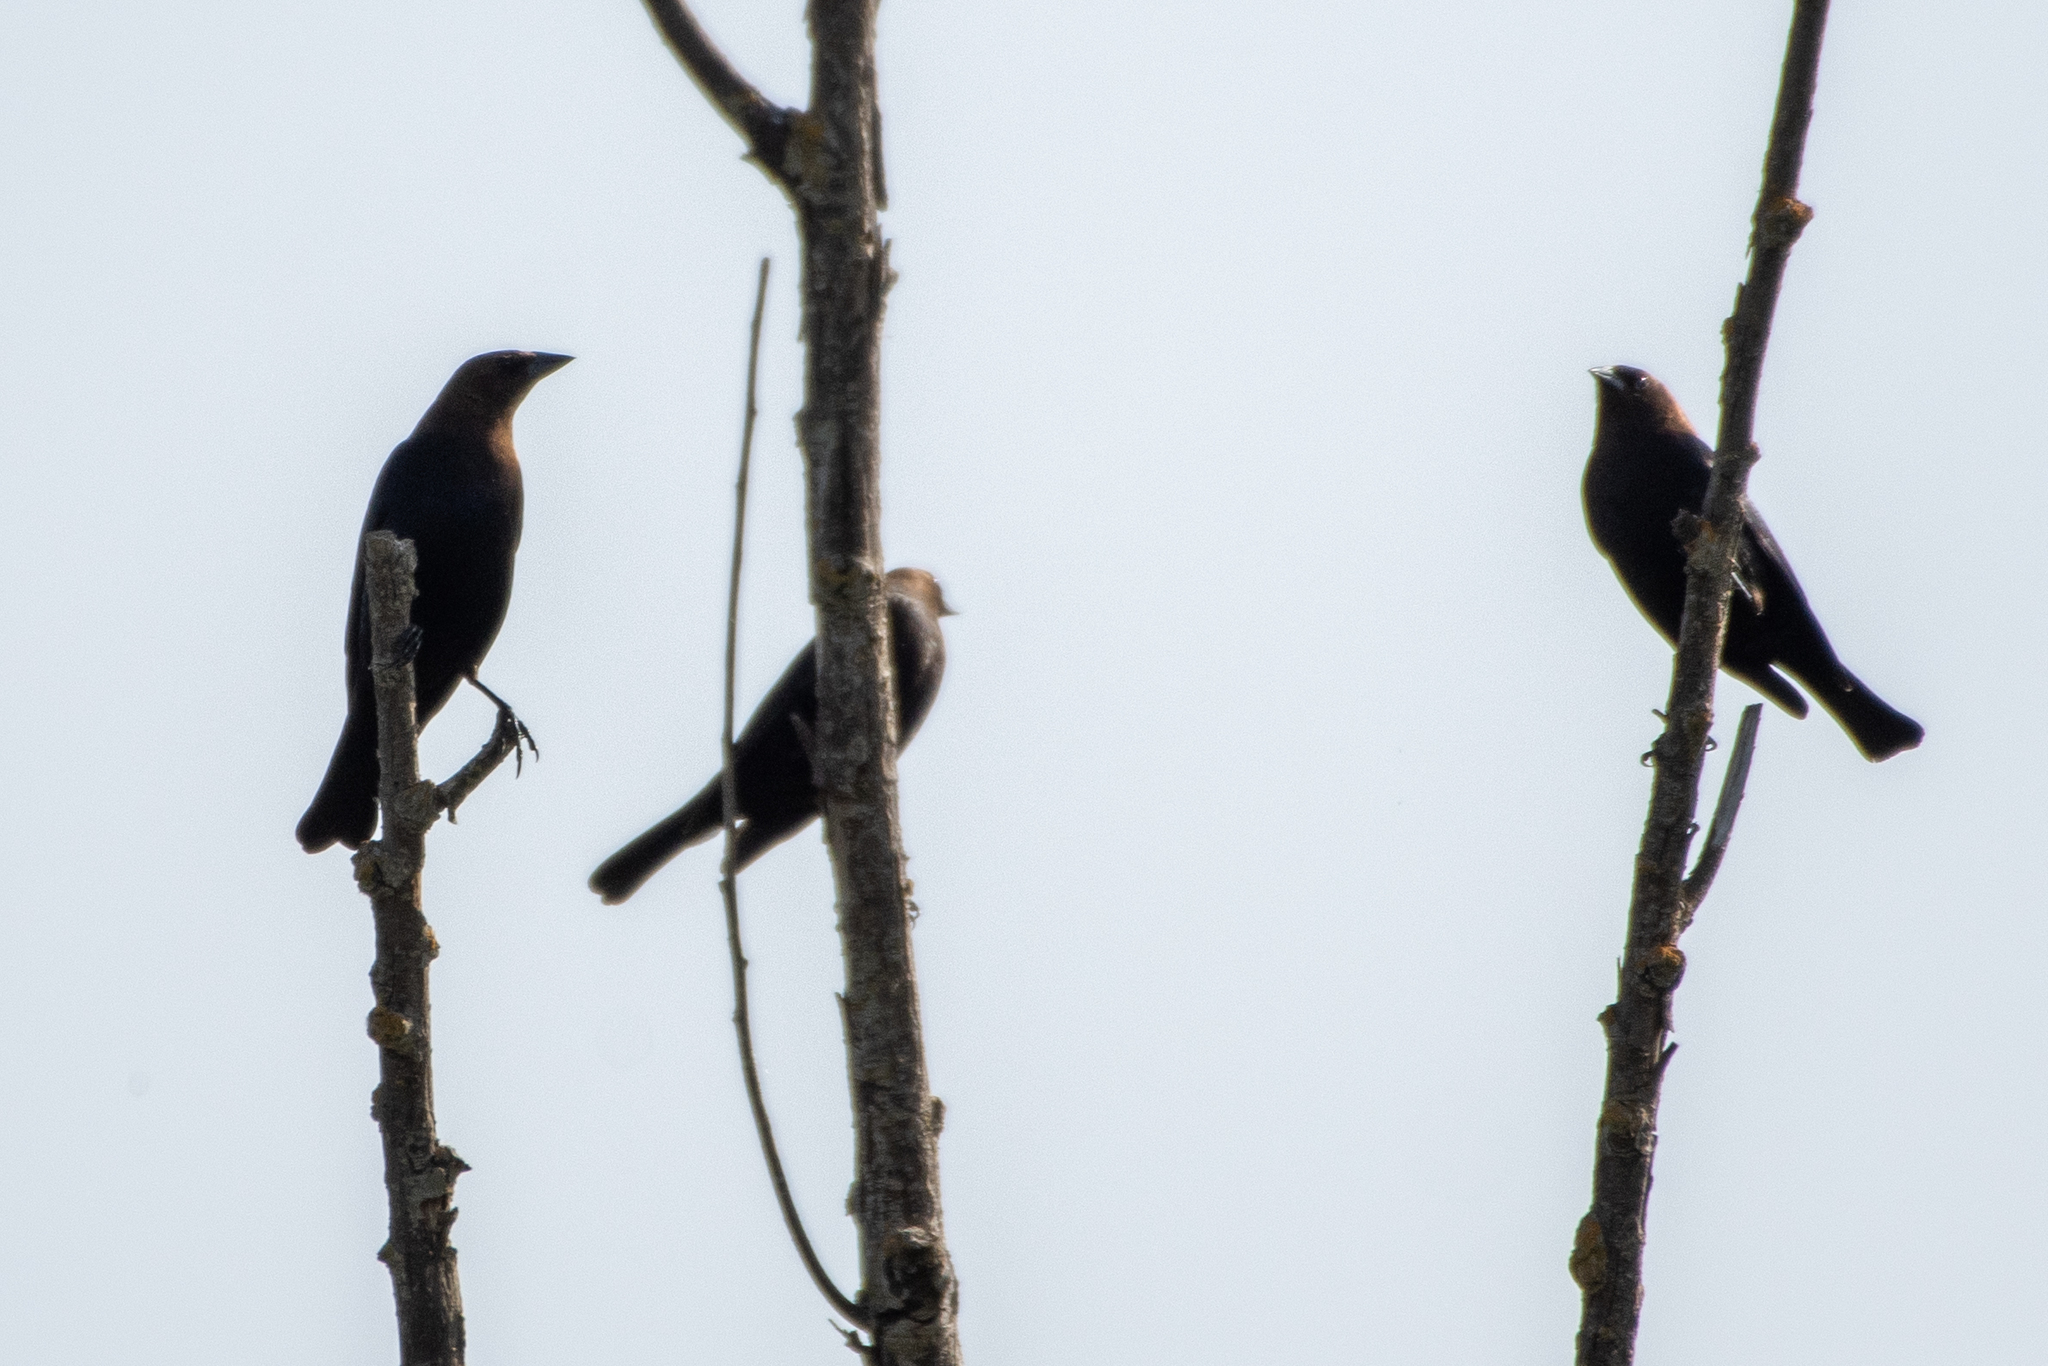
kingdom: Animalia
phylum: Chordata
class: Aves
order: Passeriformes
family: Icteridae
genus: Molothrus
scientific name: Molothrus ater
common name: Brown-headed cowbird
